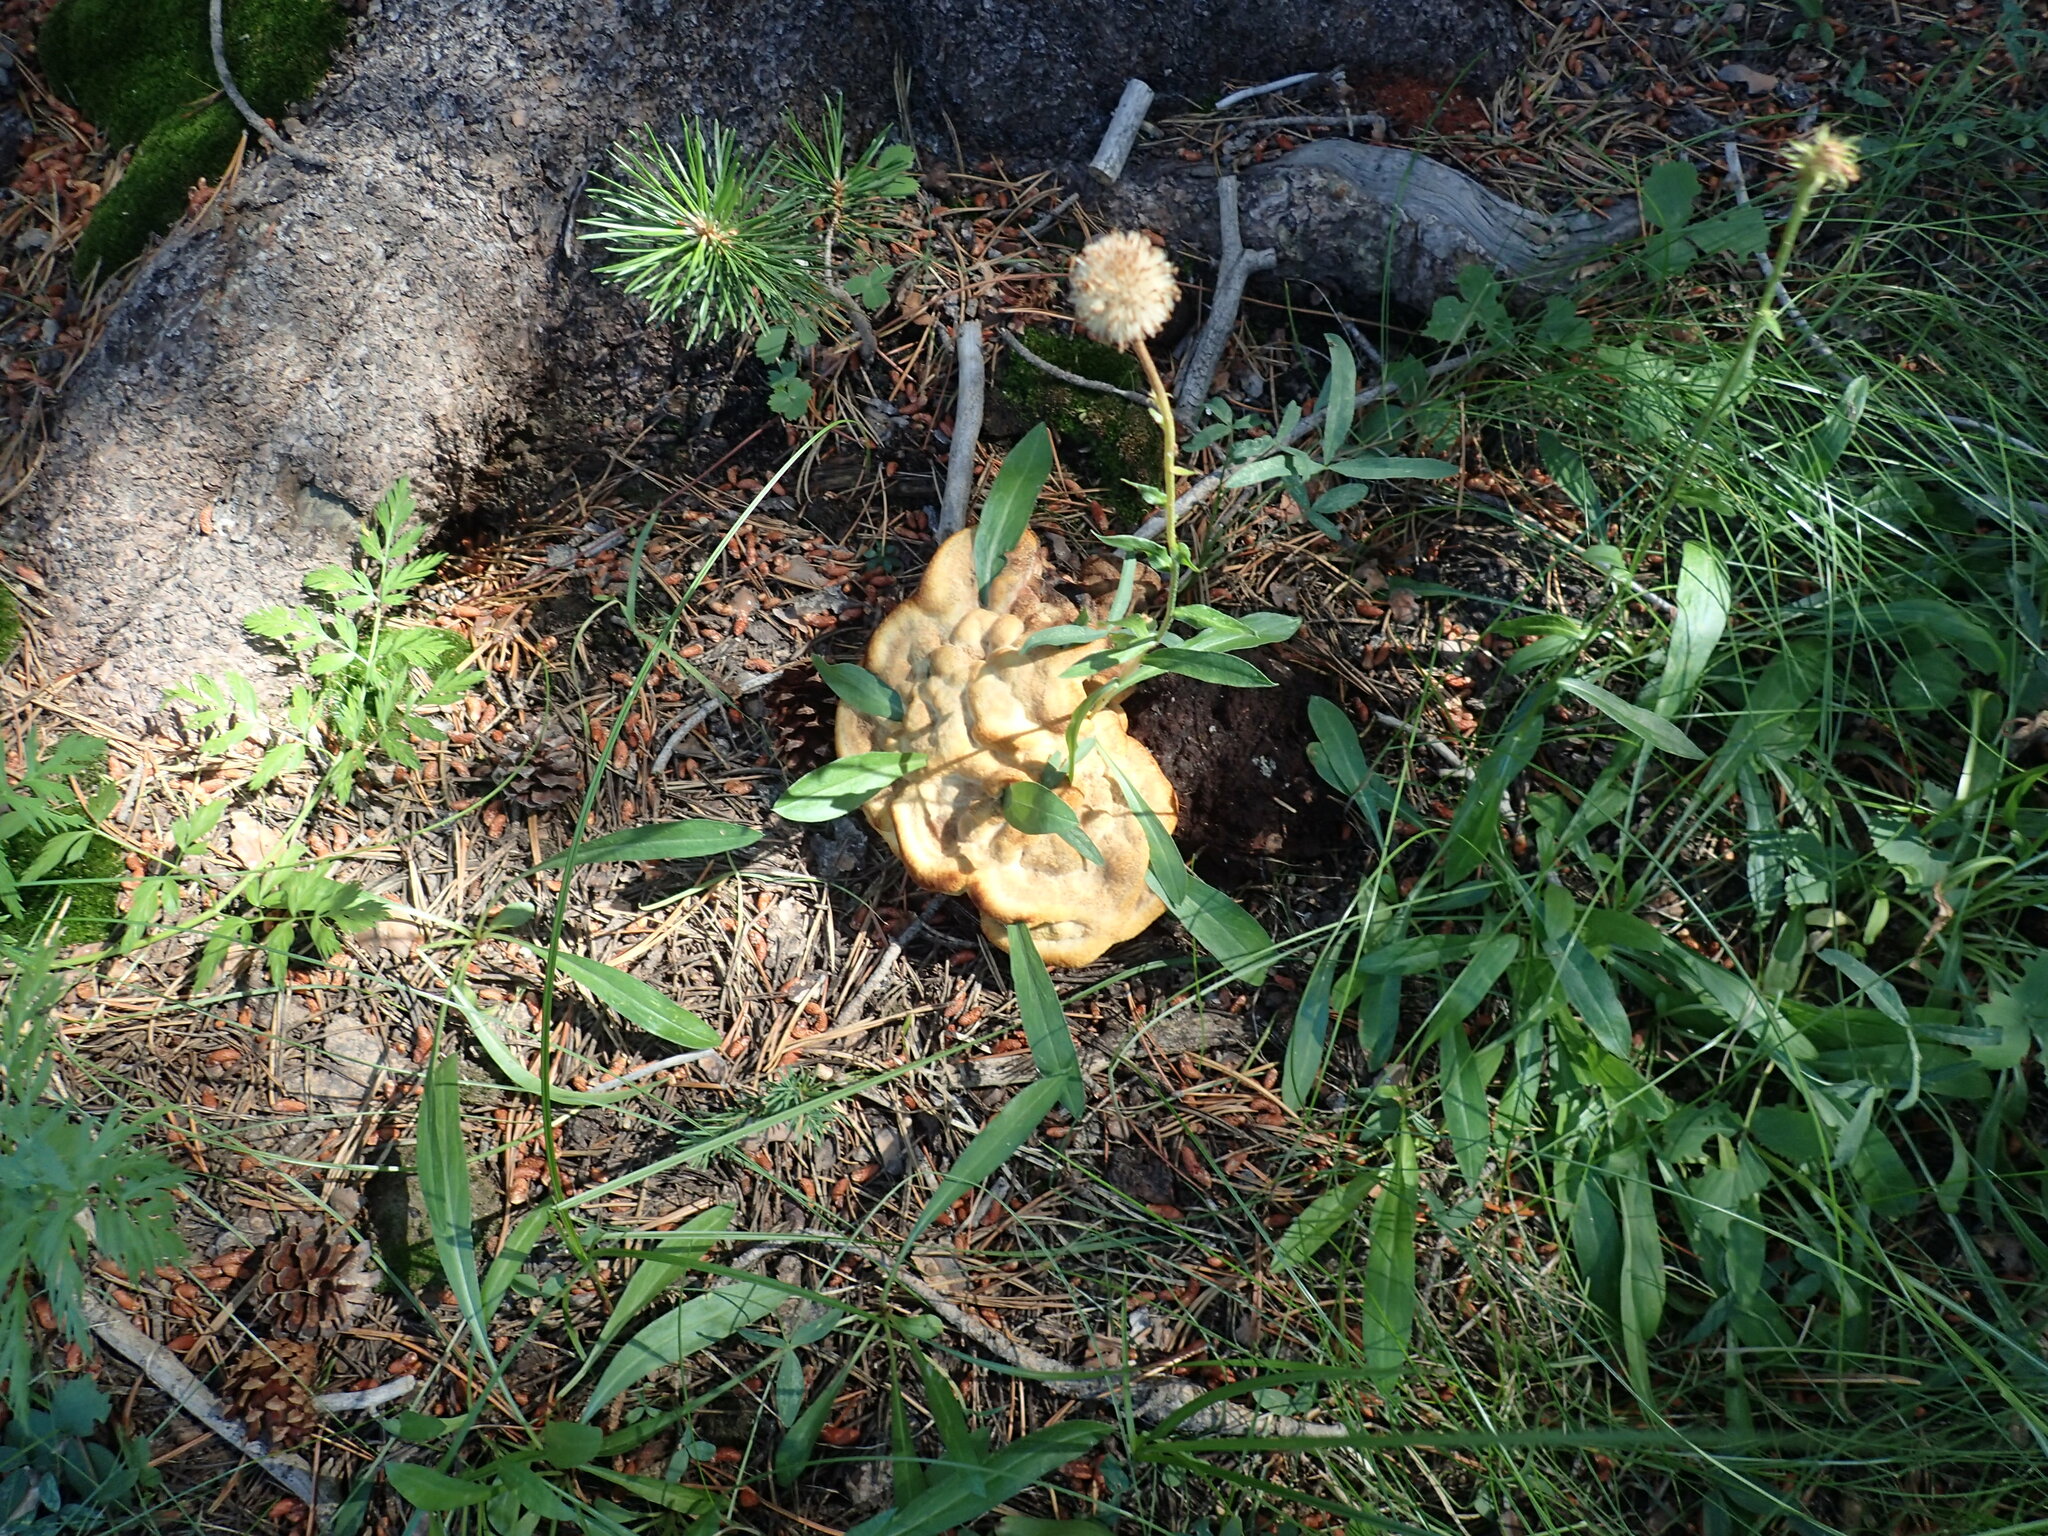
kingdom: Fungi
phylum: Basidiomycota
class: Agaricomycetes
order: Polyporales
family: Laetiporaceae
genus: Phaeolus
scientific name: Phaeolus schweinitzii
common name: Dyer's mazegill
